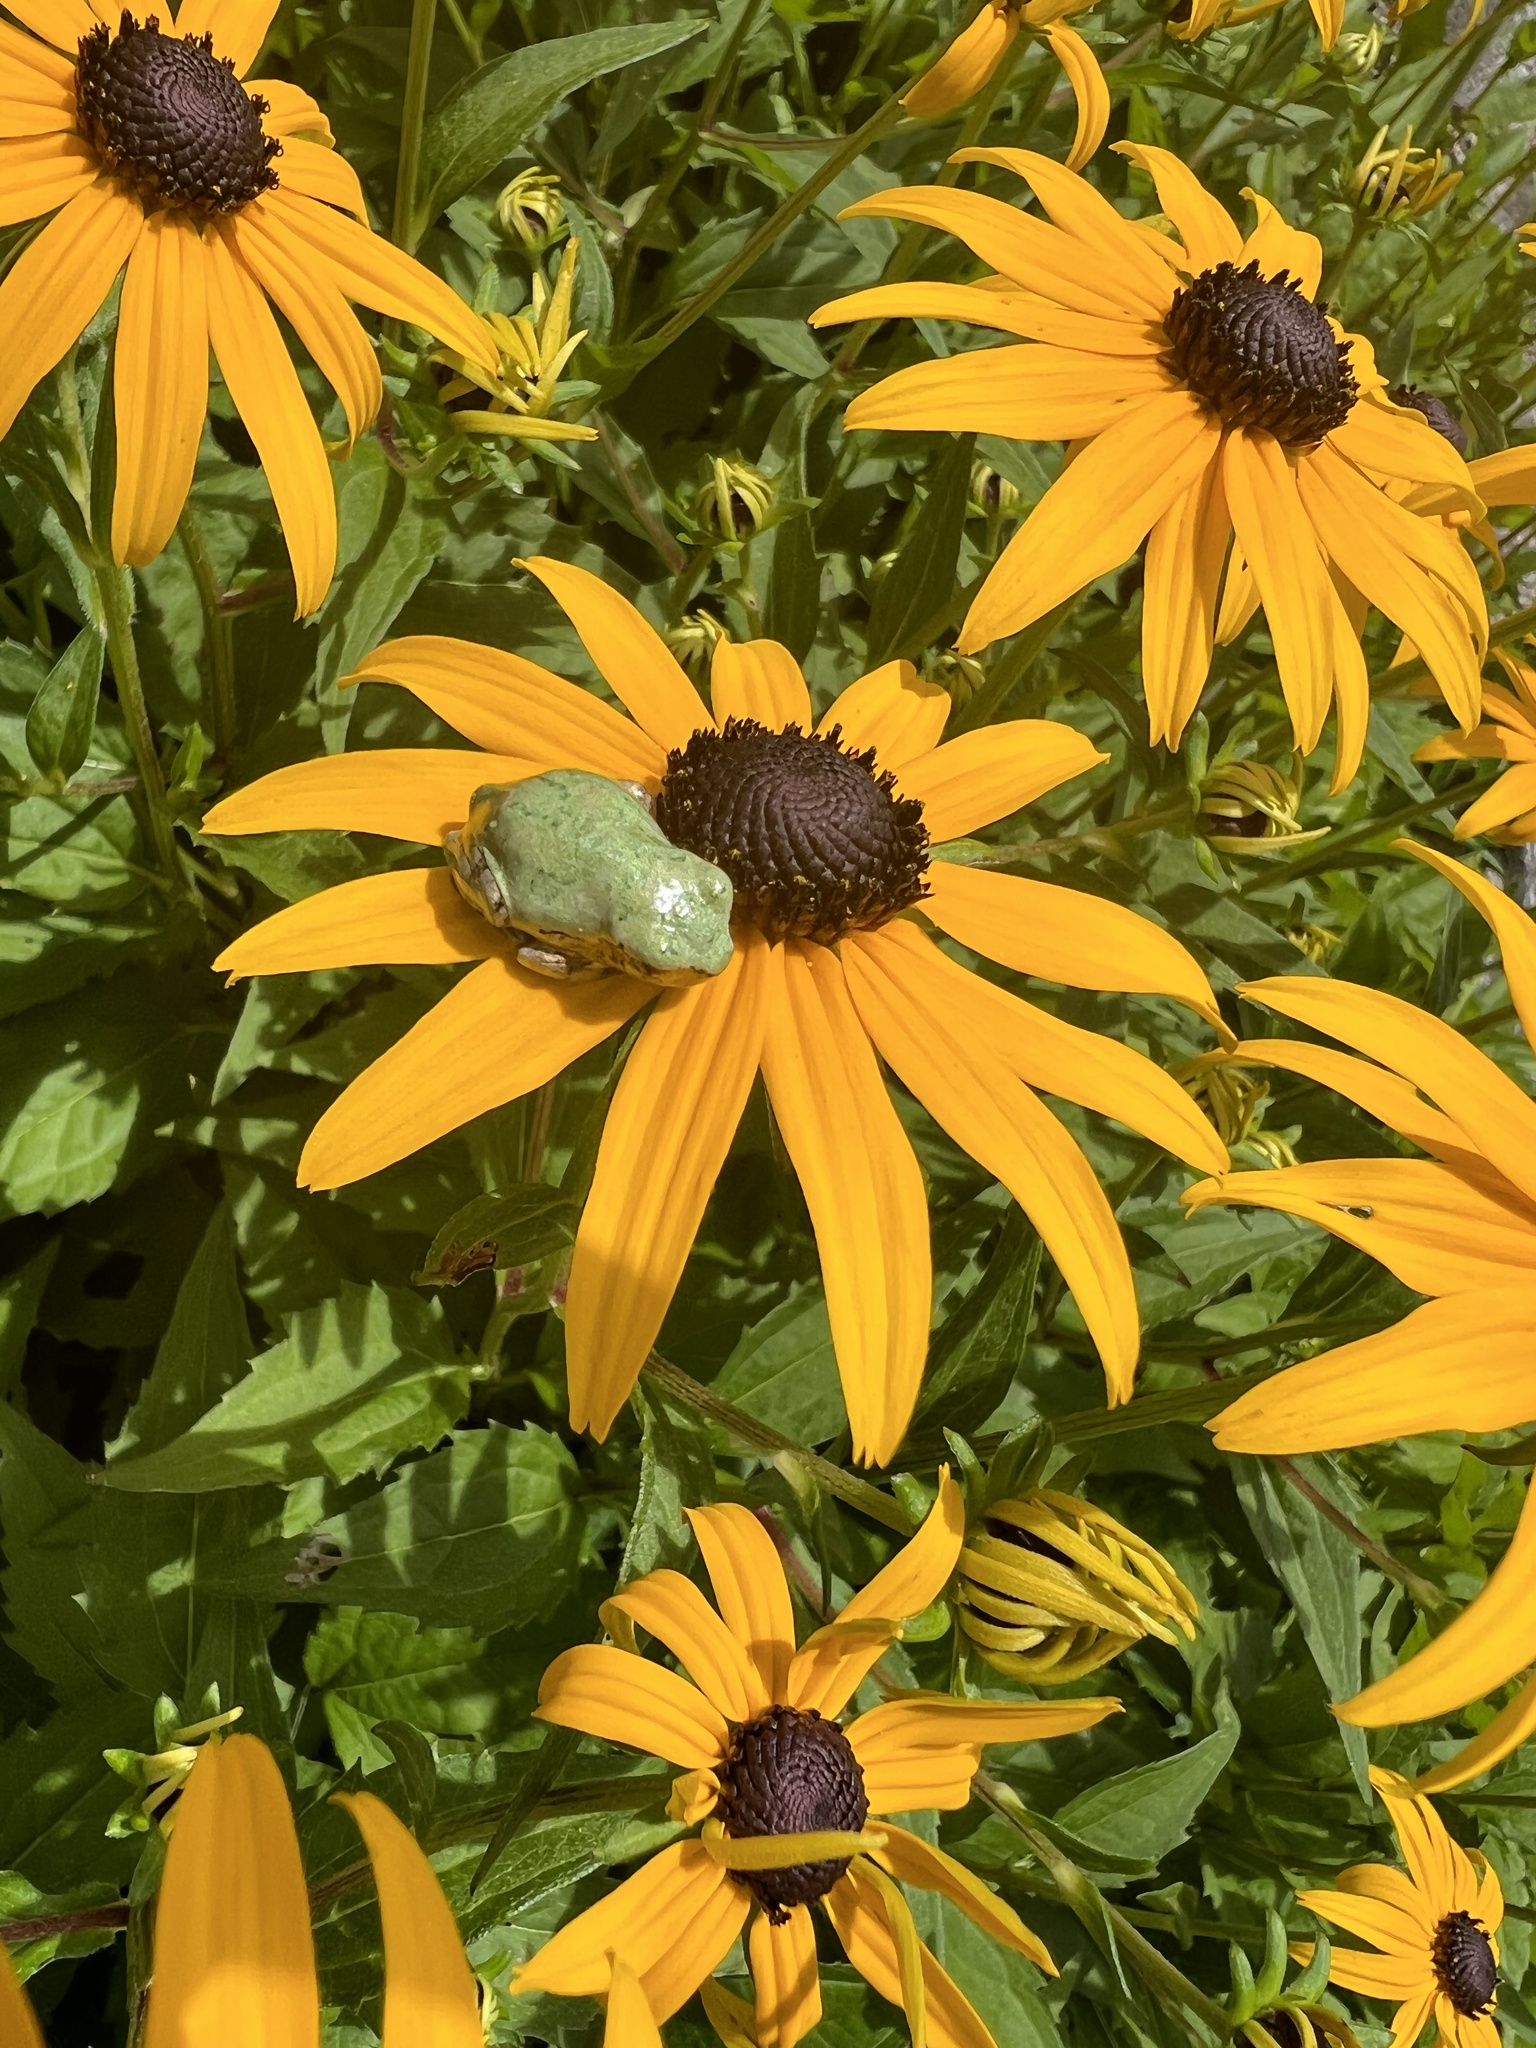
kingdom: Animalia
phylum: Chordata
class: Amphibia
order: Anura
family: Hylidae
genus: Dryophytes
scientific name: Dryophytes versicolor
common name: Gray treefrog
